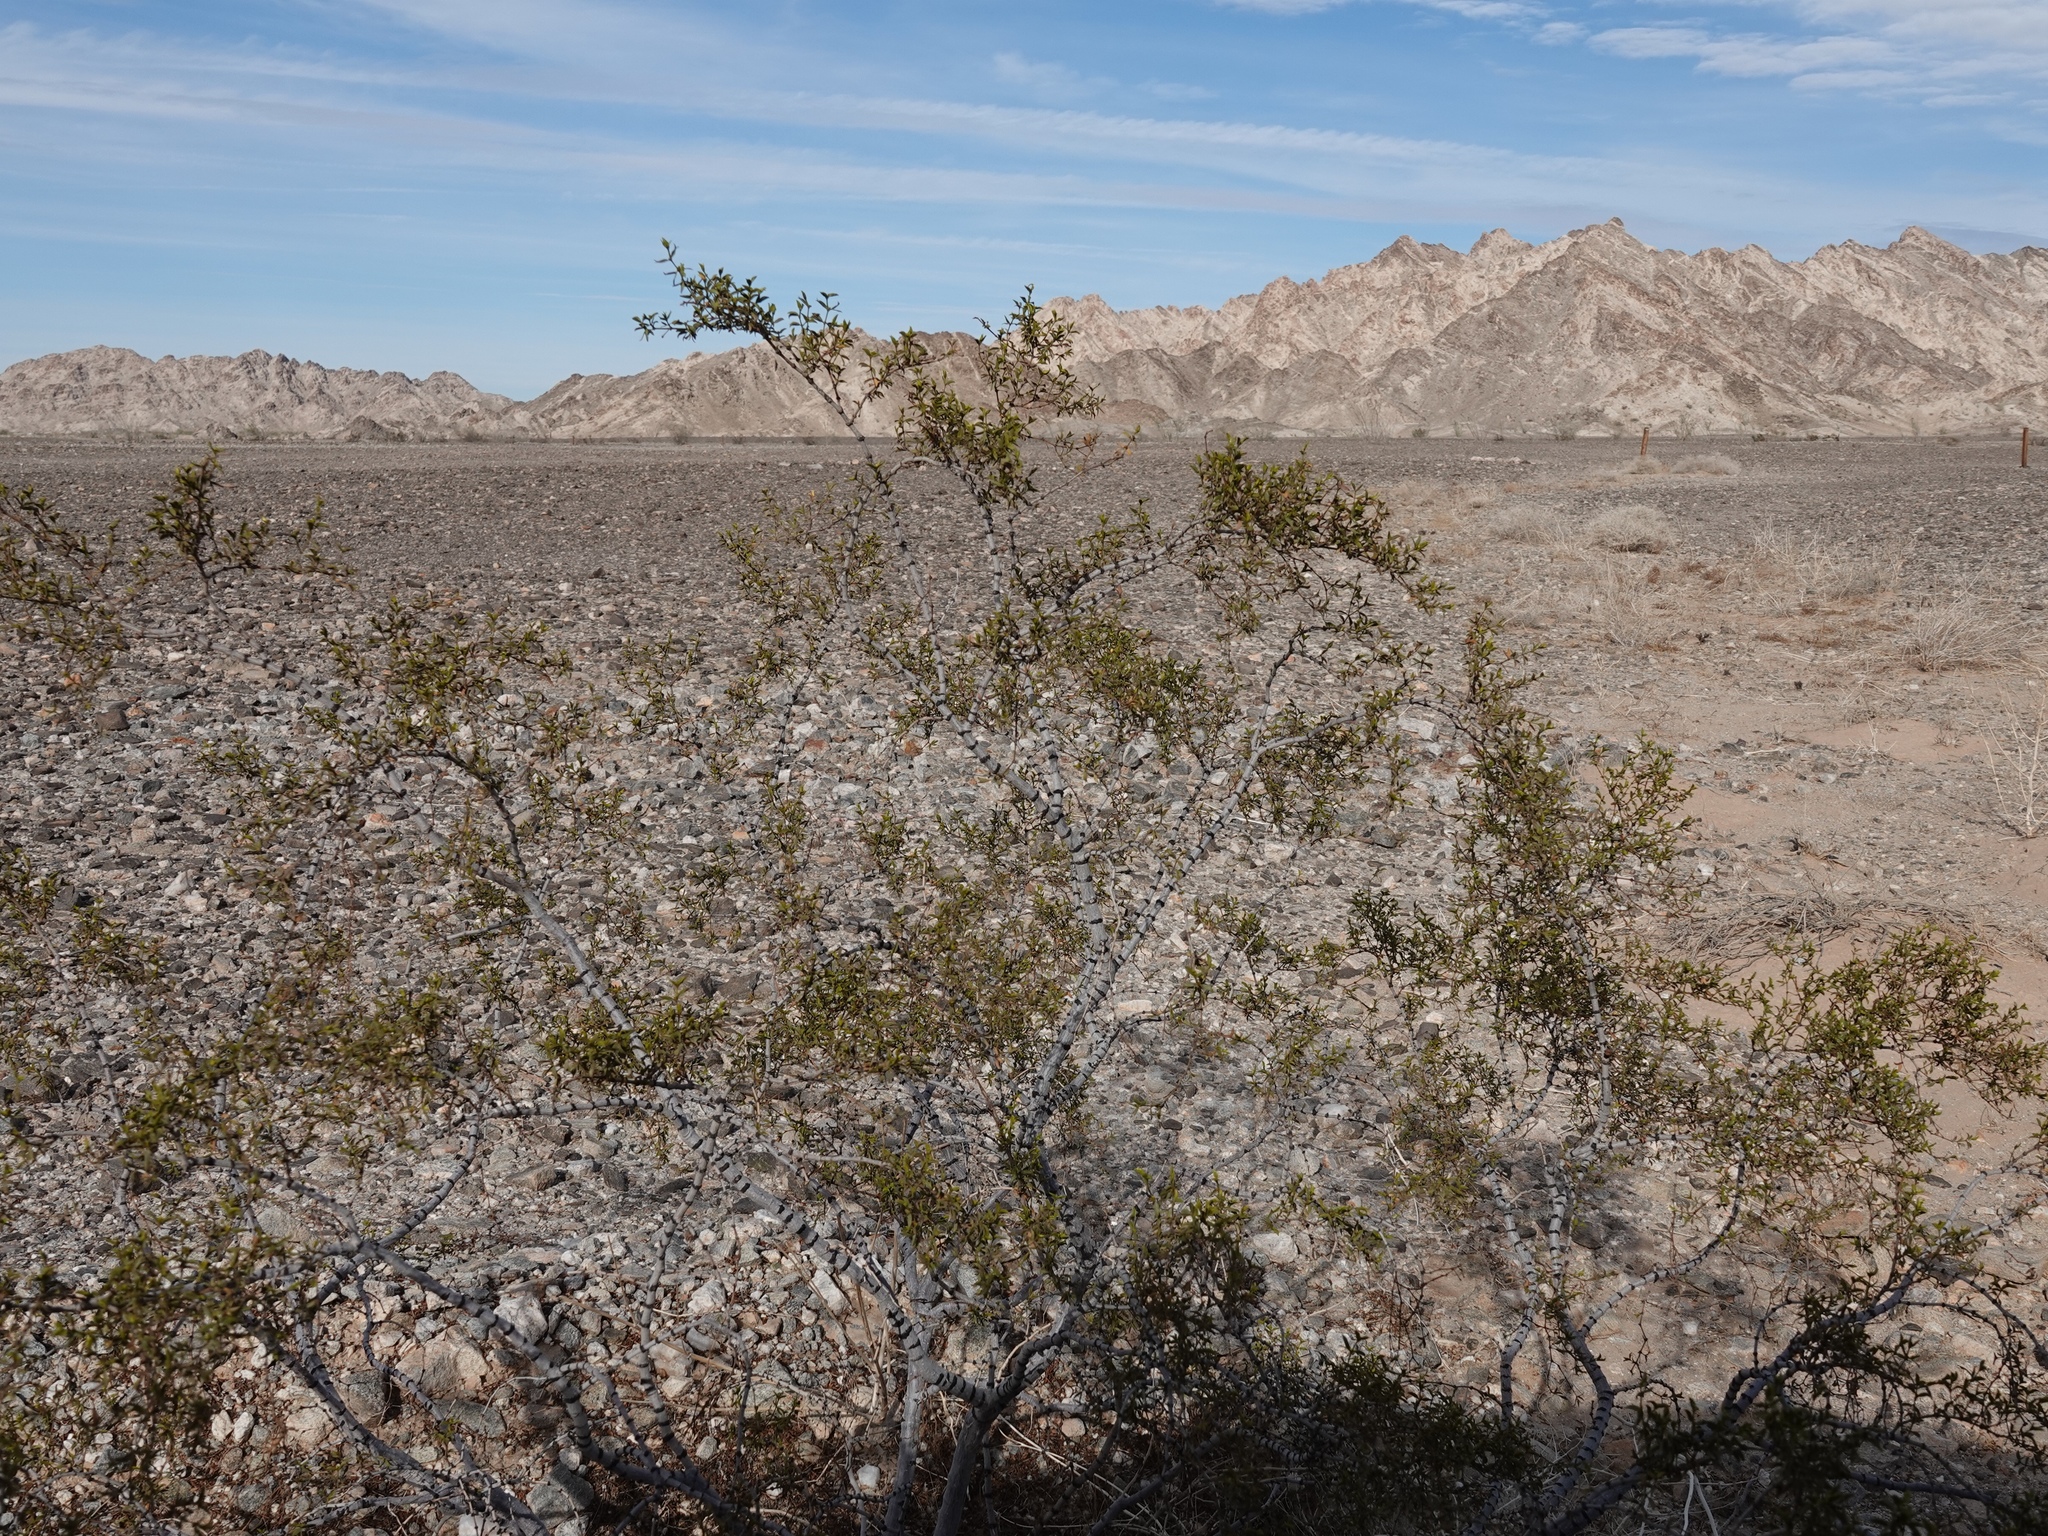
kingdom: Plantae
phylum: Tracheophyta
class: Magnoliopsida
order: Zygophyllales
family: Zygophyllaceae
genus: Larrea
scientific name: Larrea tridentata
